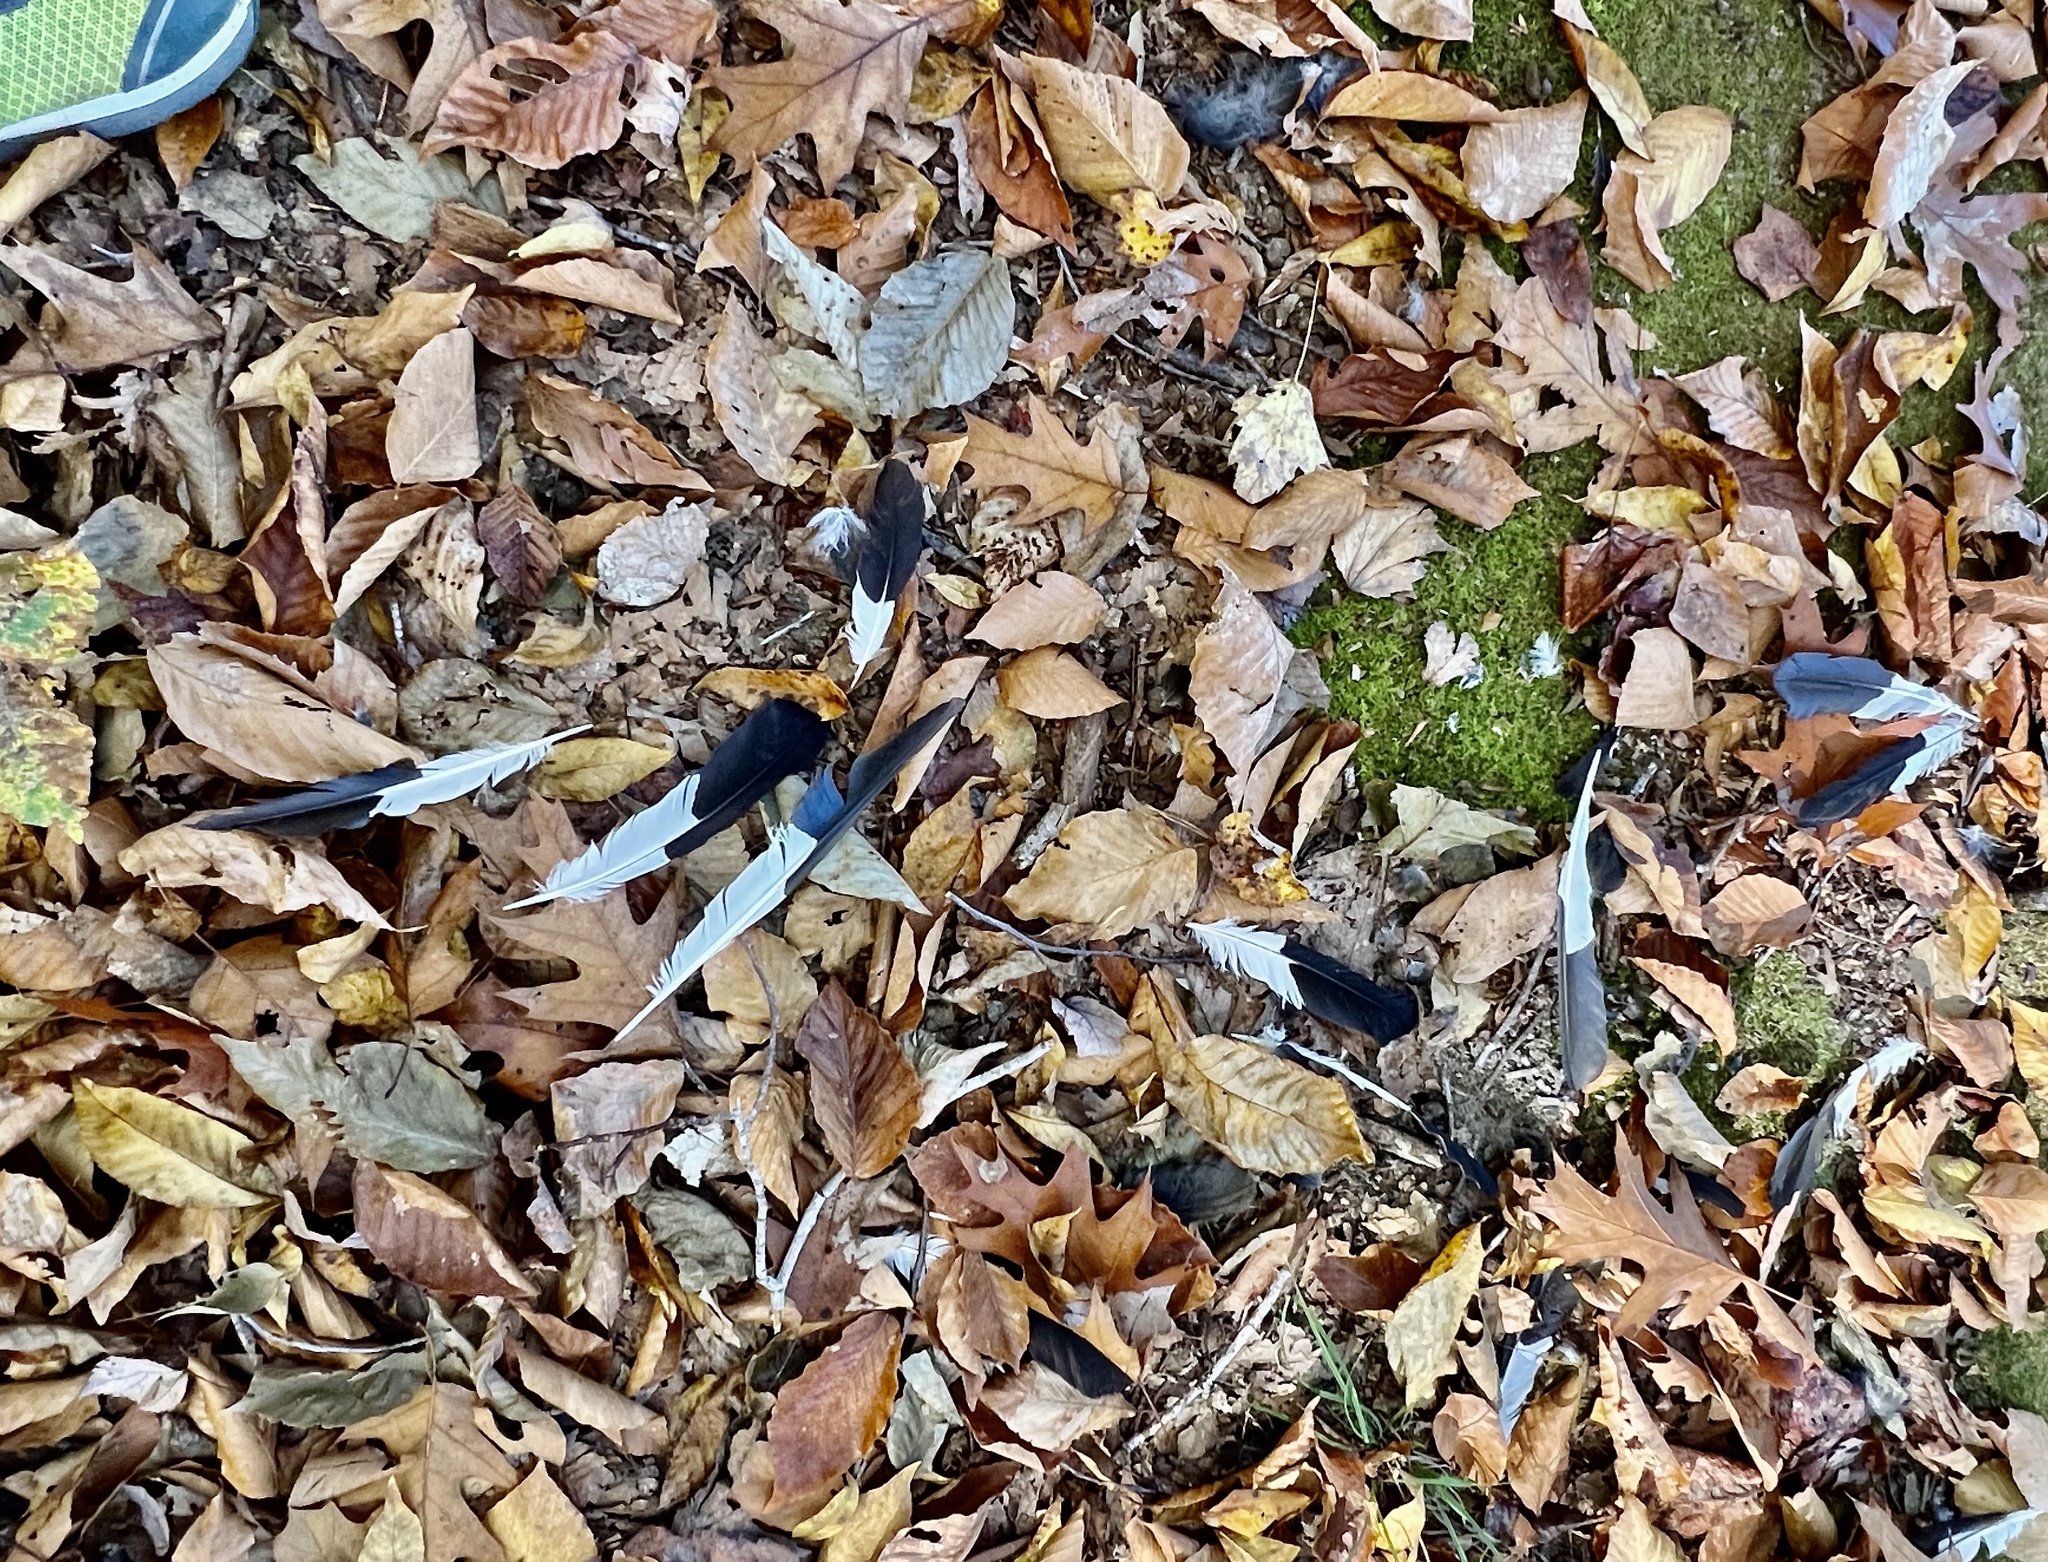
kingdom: Animalia
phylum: Chordata
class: Aves
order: Piciformes
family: Picidae
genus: Dryocopus
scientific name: Dryocopus pileatus
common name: Pileated woodpecker
